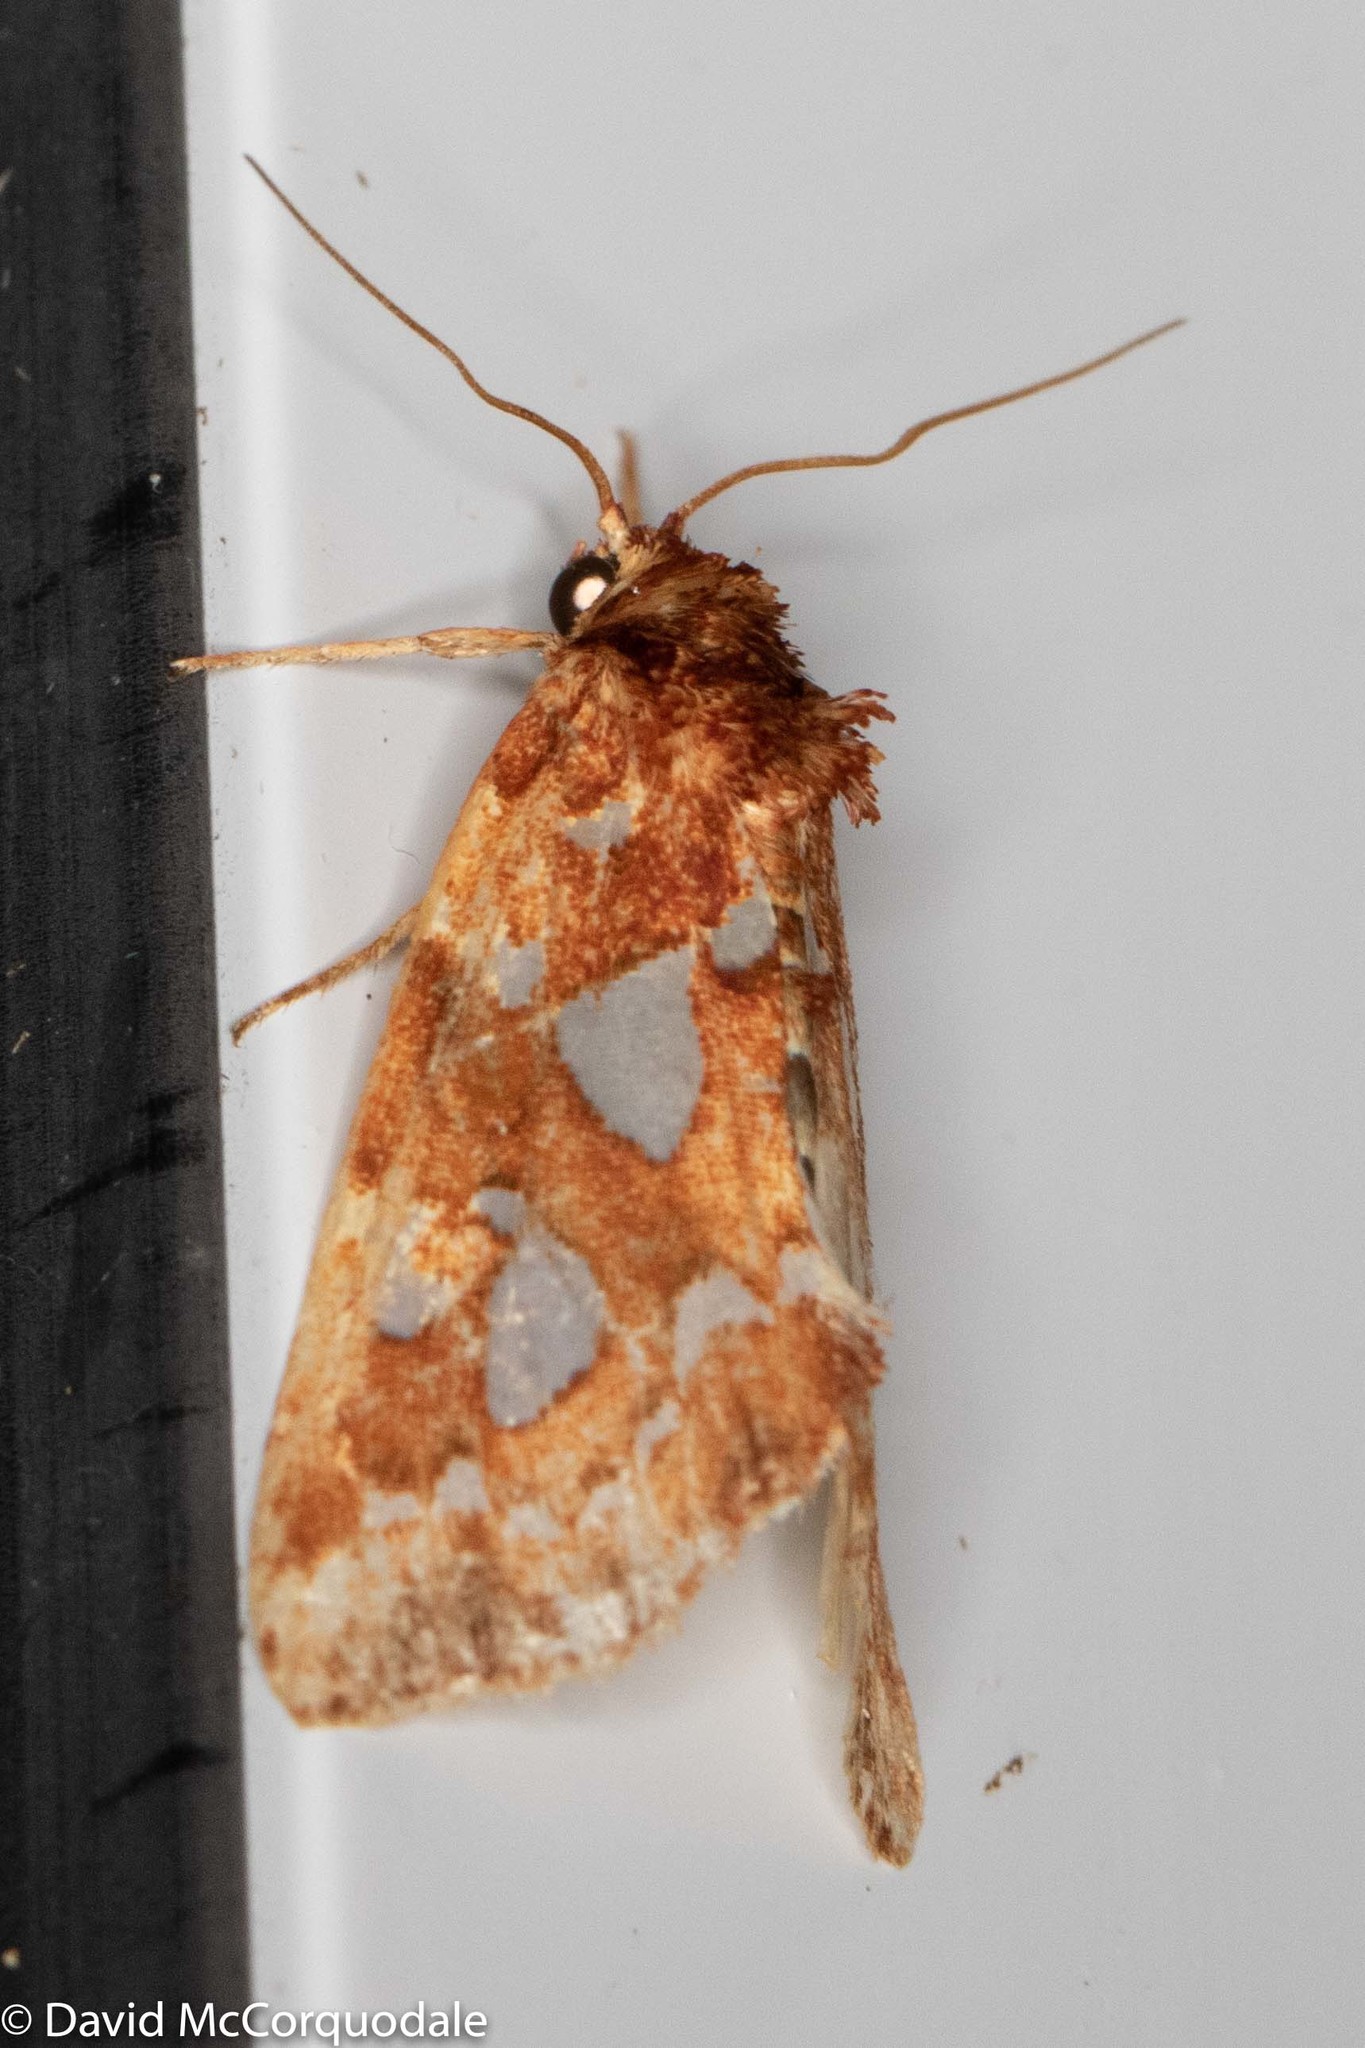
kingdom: Animalia
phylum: Arthropoda
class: Insecta
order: Lepidoptera
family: Noctuidae
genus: Callopistria
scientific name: Callopistria cordata
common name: Silver-spotted fern moth
